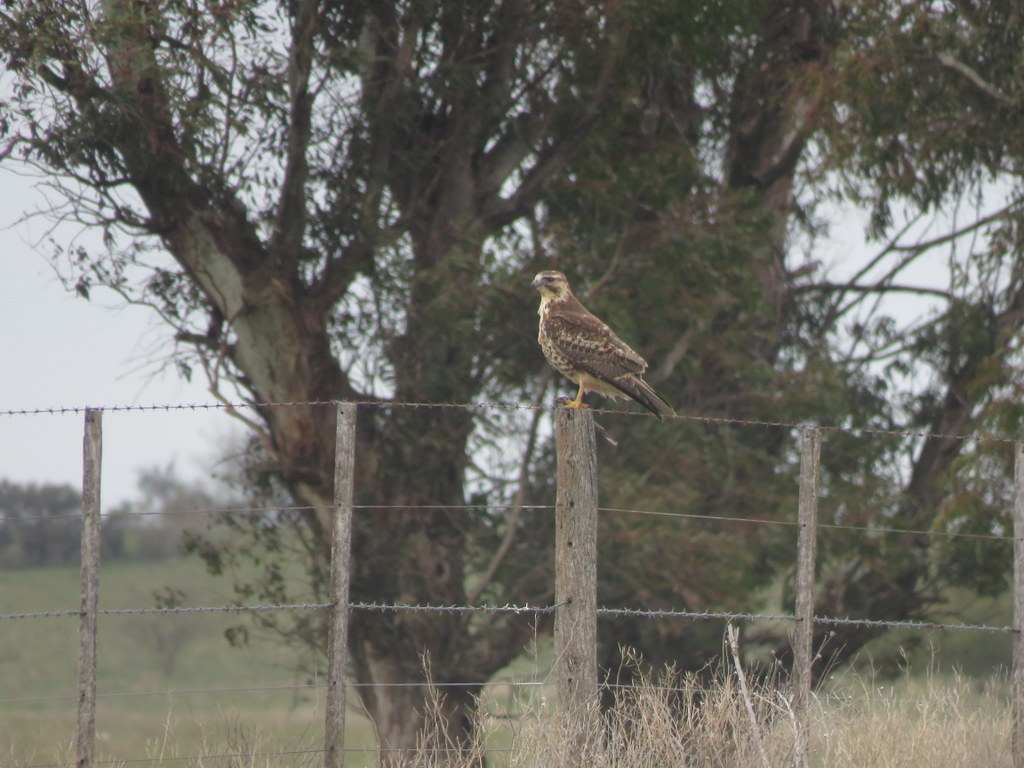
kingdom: Animalia
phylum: Chordata
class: Aves
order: Accipitriformes
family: Accipitridae
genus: Buteo
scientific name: Buteo polyosoma
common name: Variable hawk
